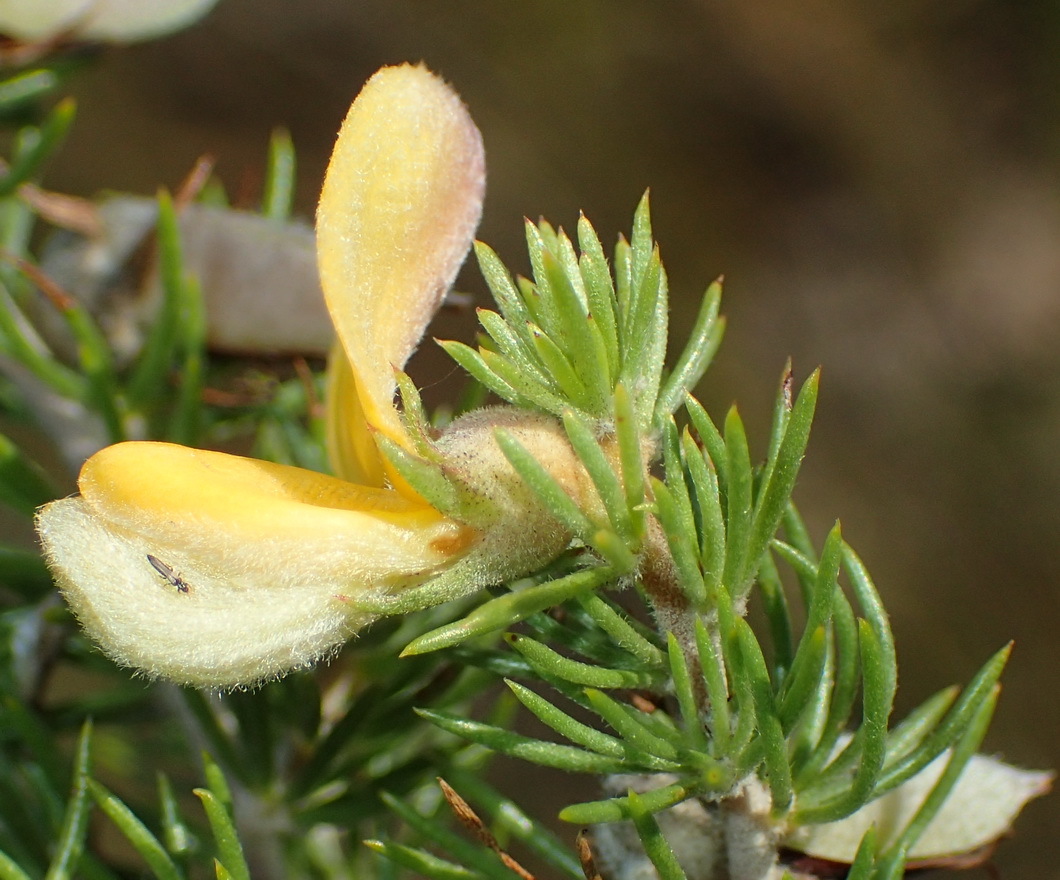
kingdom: Plantae
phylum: Tracheophyta
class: Magnoliopsida
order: Fabales
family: Fabaceae
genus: Aspalathus
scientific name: Aspalathus kougaensis
